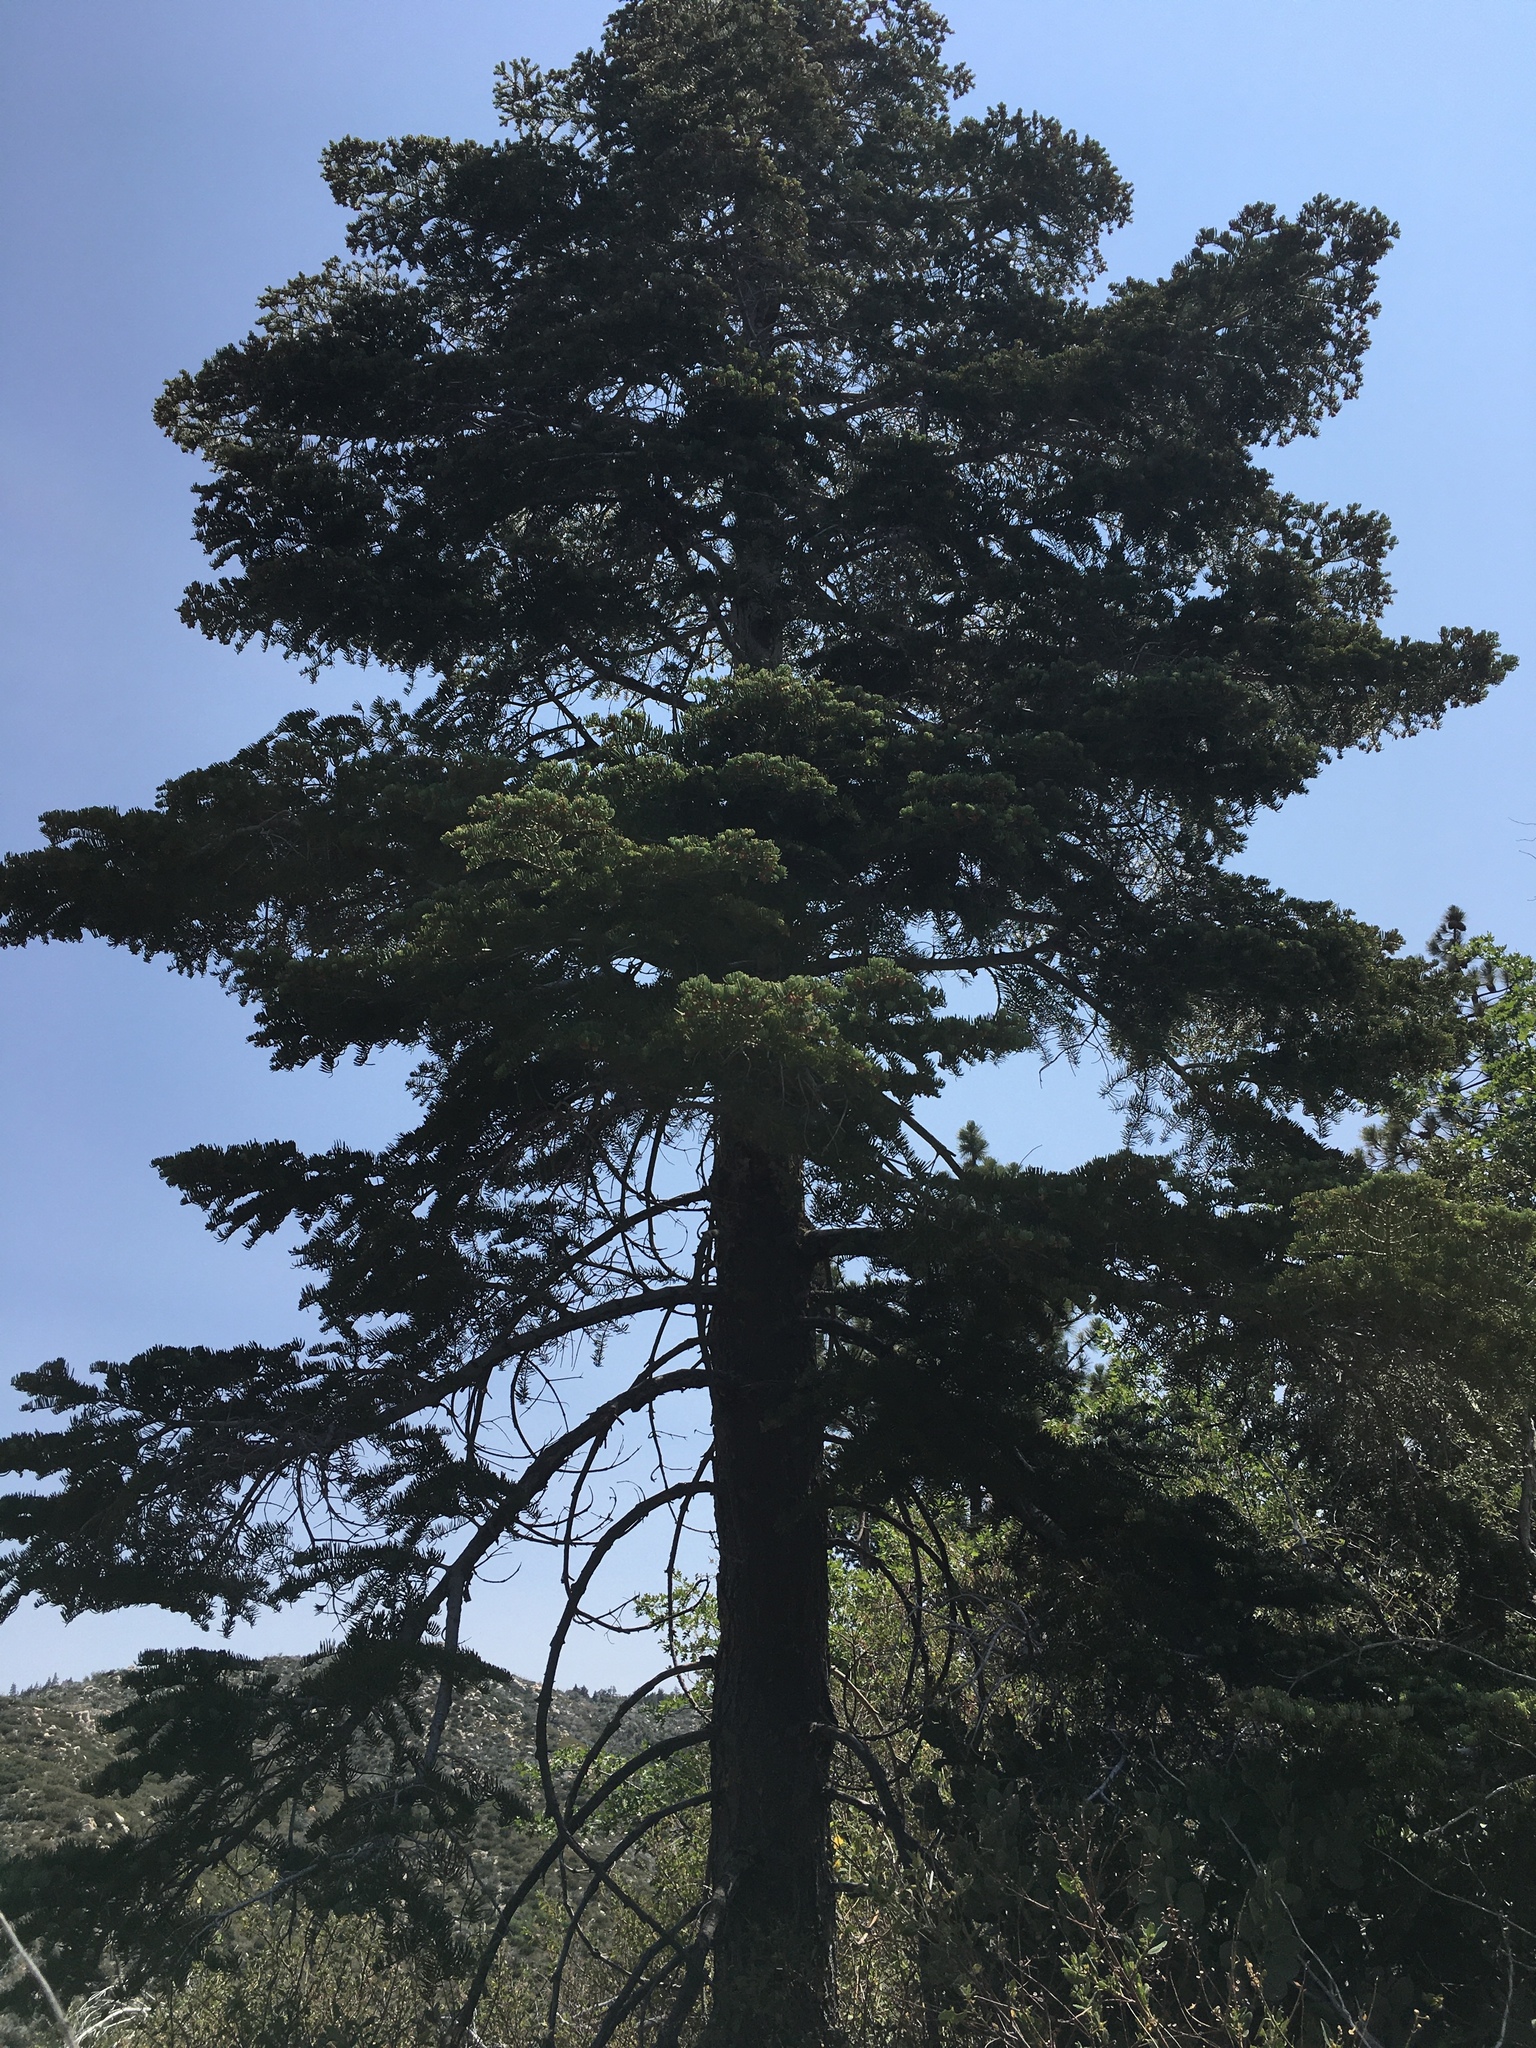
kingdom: Plantae
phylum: Tracheophyta
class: Pinopsida
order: Pinales
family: Pinaceae
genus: Abies
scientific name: Abies concolor
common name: Colorado fir
